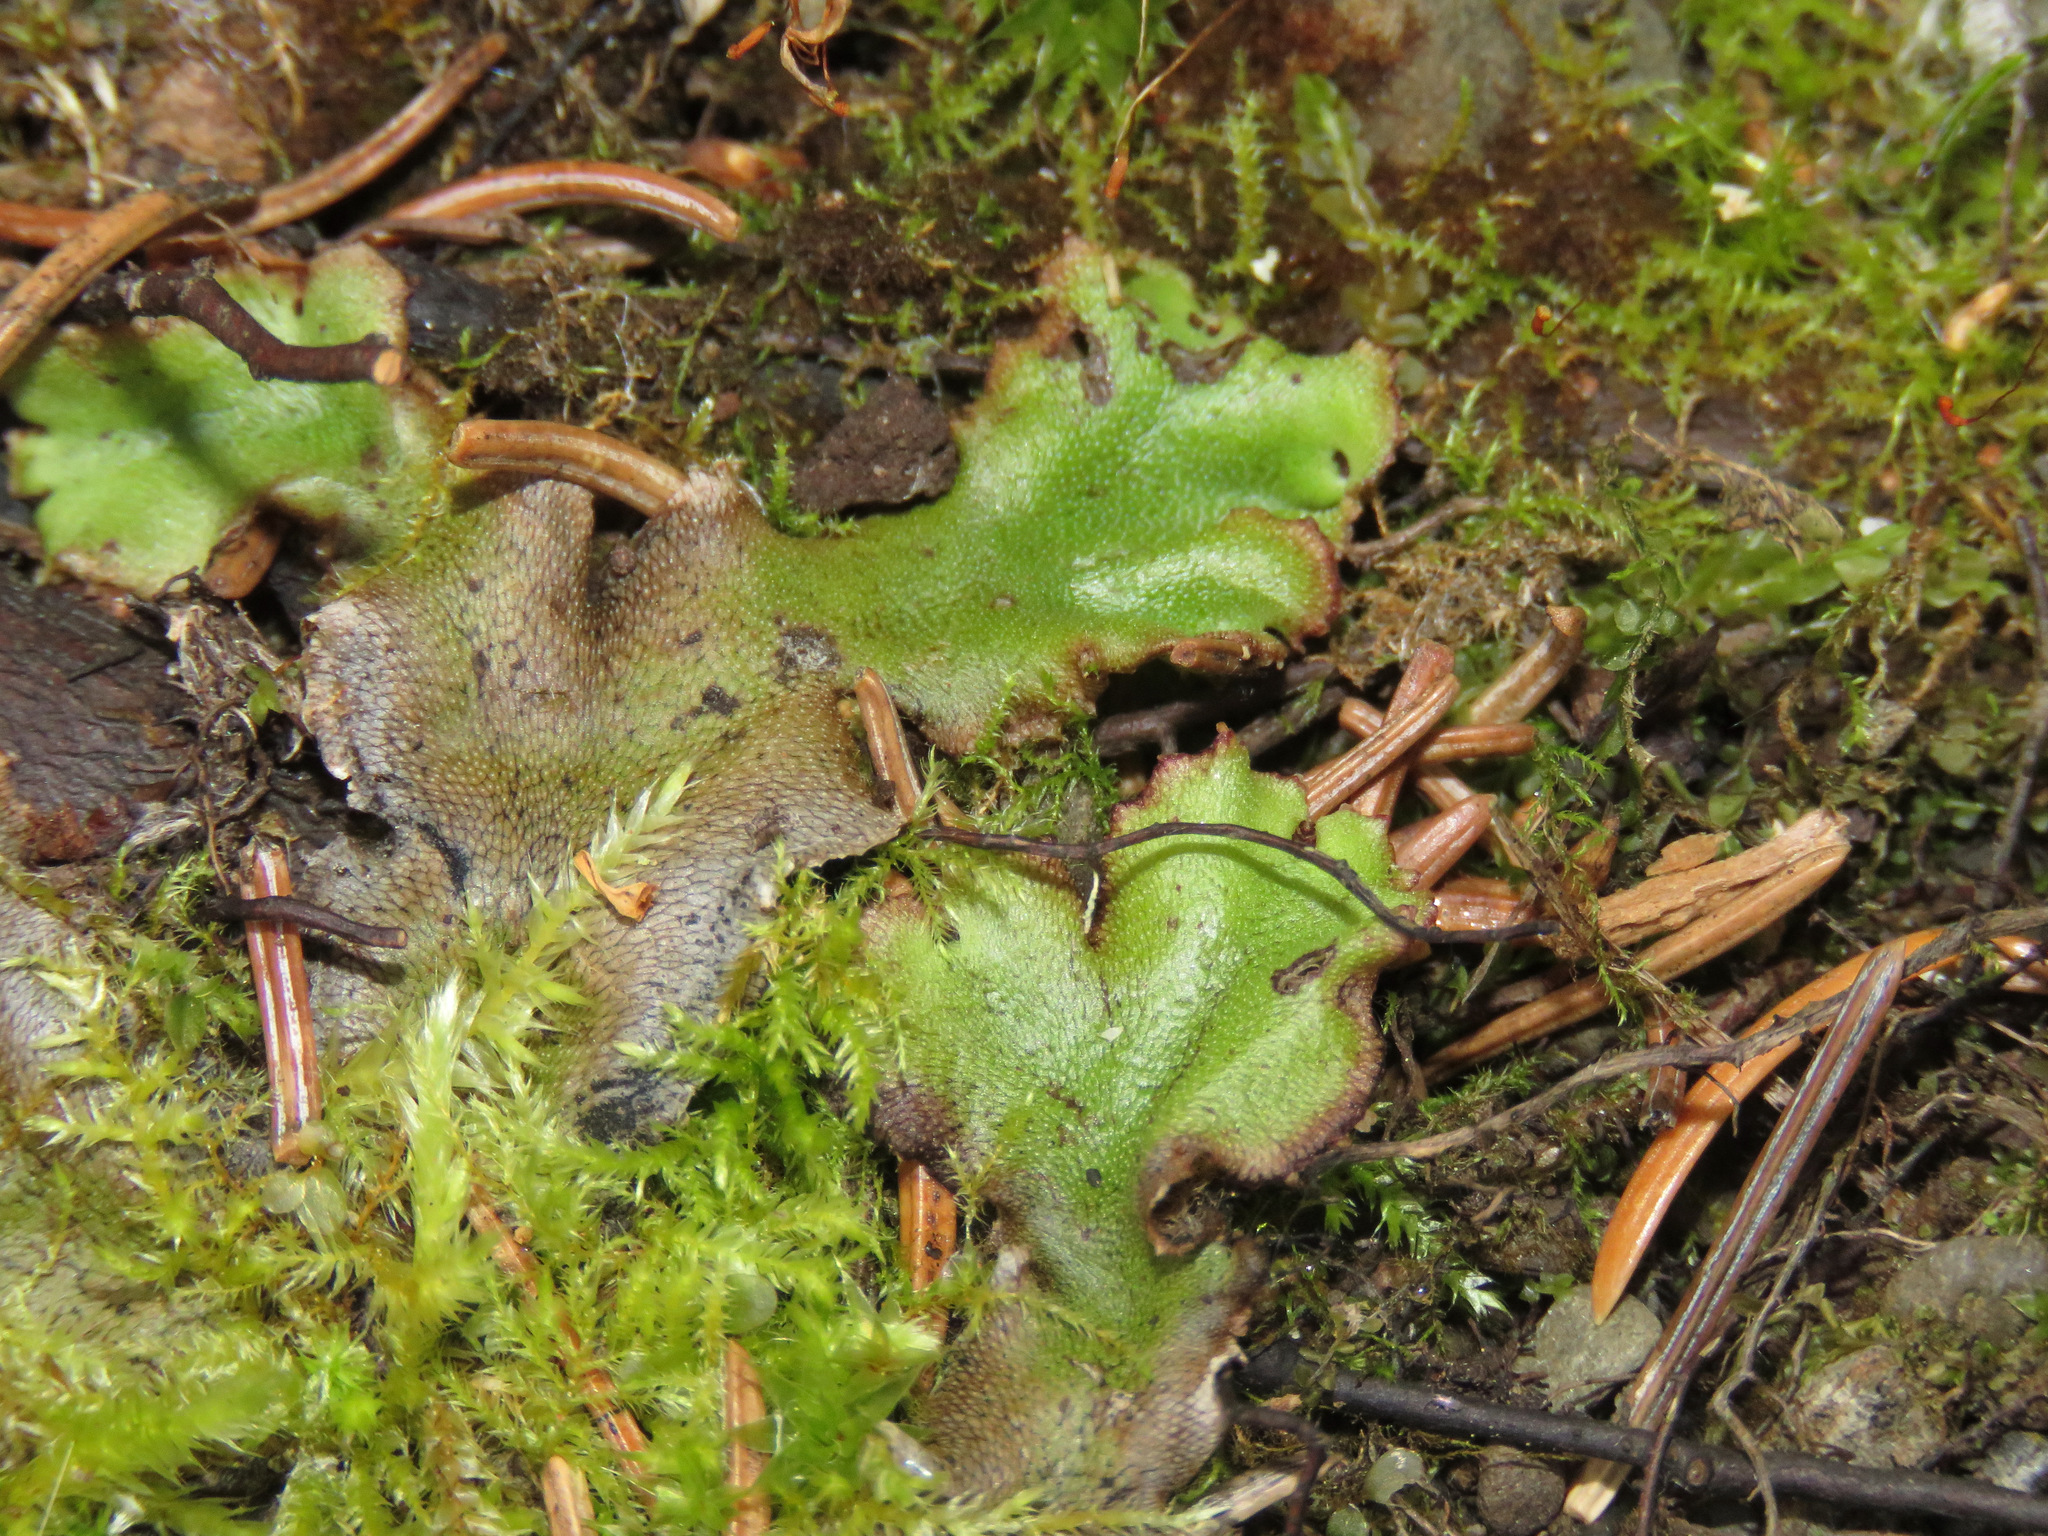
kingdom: Plantae
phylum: Marchantiophyta
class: Marchantiopsida
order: Marchantiales
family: Marchantiaceae
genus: Marchantia
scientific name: Marchantia polymorpha
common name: Common liverwort
